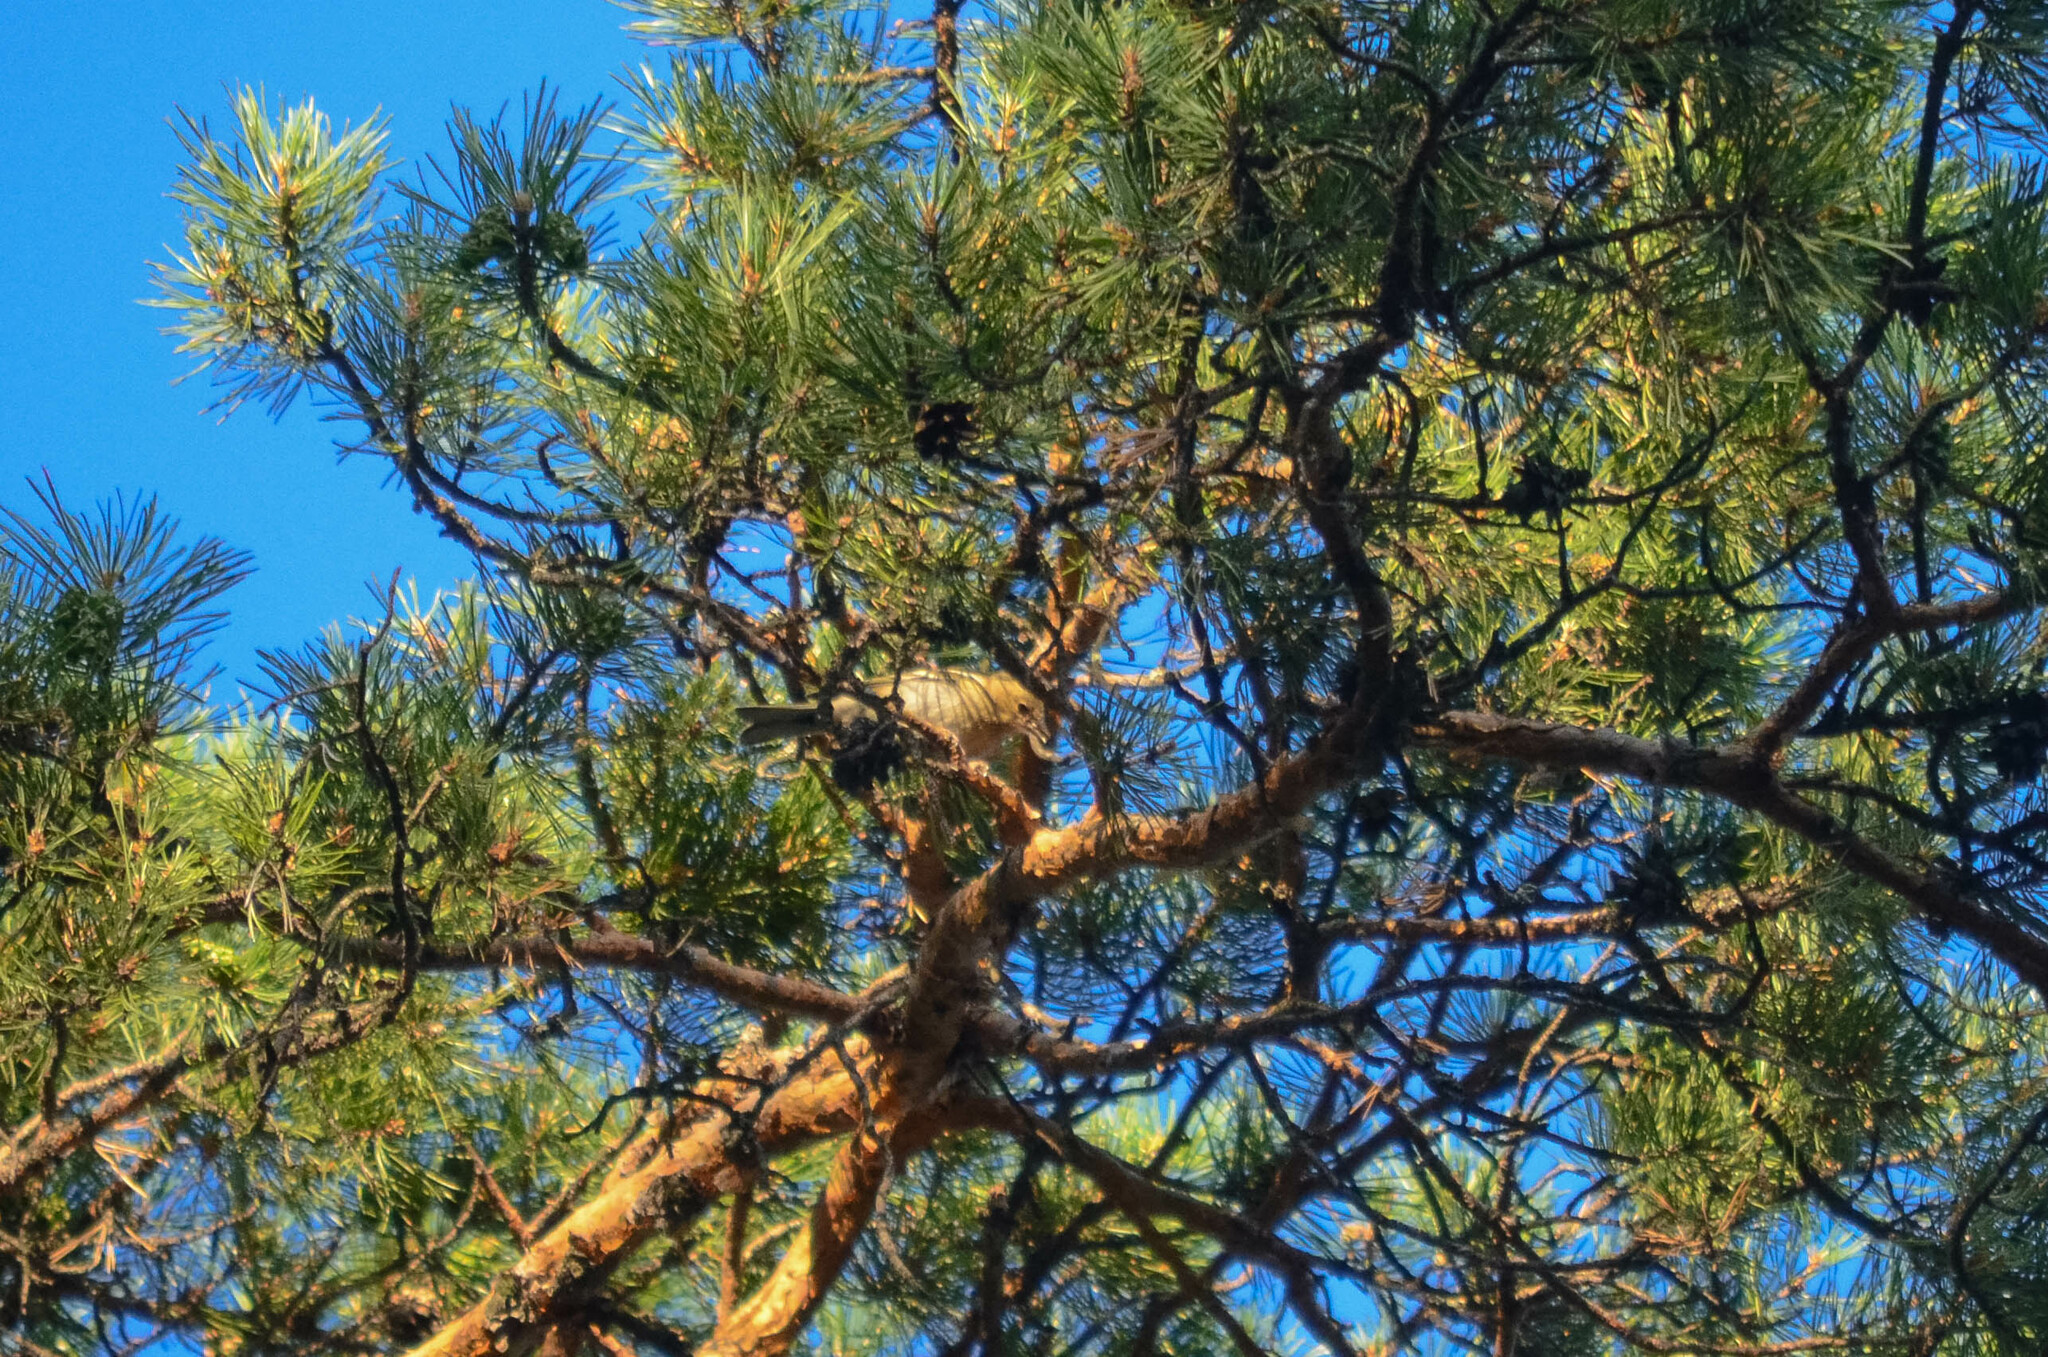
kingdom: Animalia
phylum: Chordata
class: Aves
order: Passeriformes
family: Fringillidae
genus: Fringilla
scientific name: Fringilla coelebs
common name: Common chaffinch
